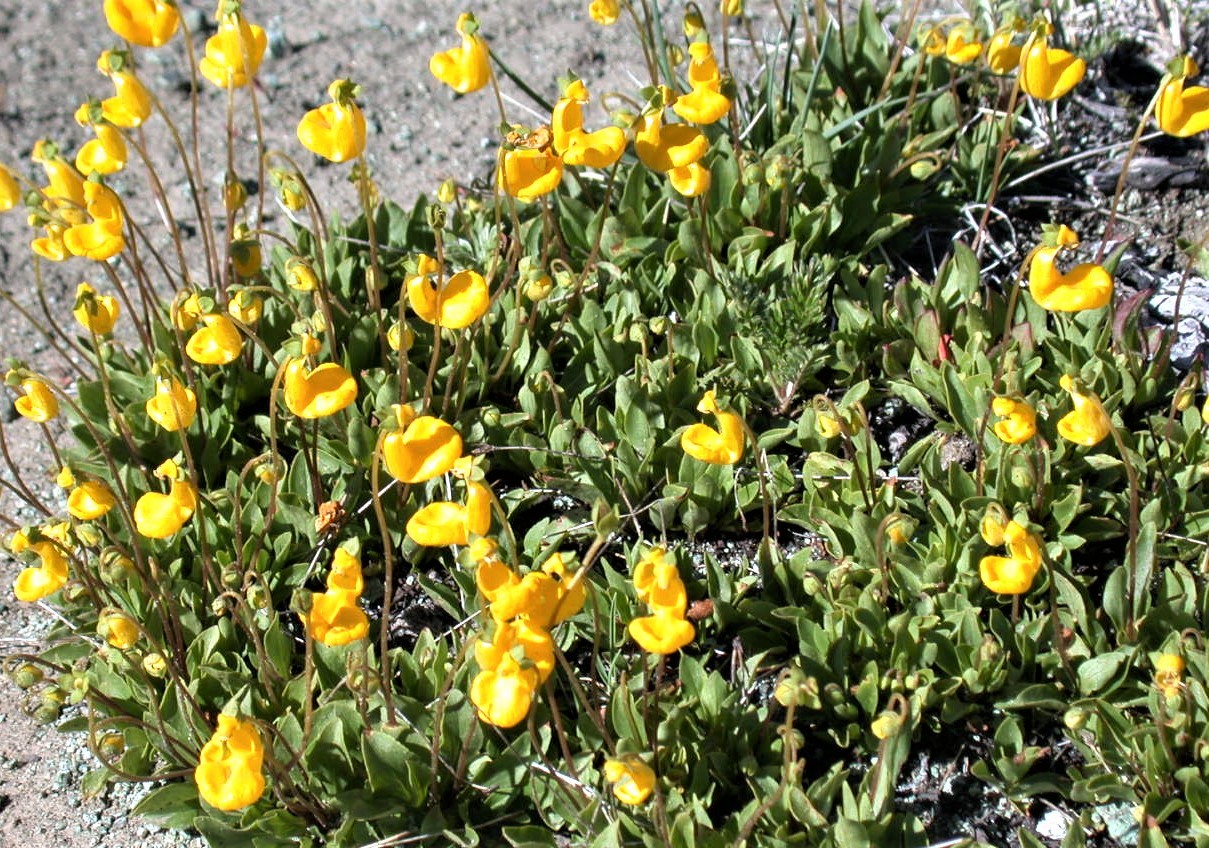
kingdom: Plantae
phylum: Tracheophyta
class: Magnoliopsida
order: Lamiales
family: Calceolariaceae
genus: Calceolaria
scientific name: Calceolaria polyrhiza
